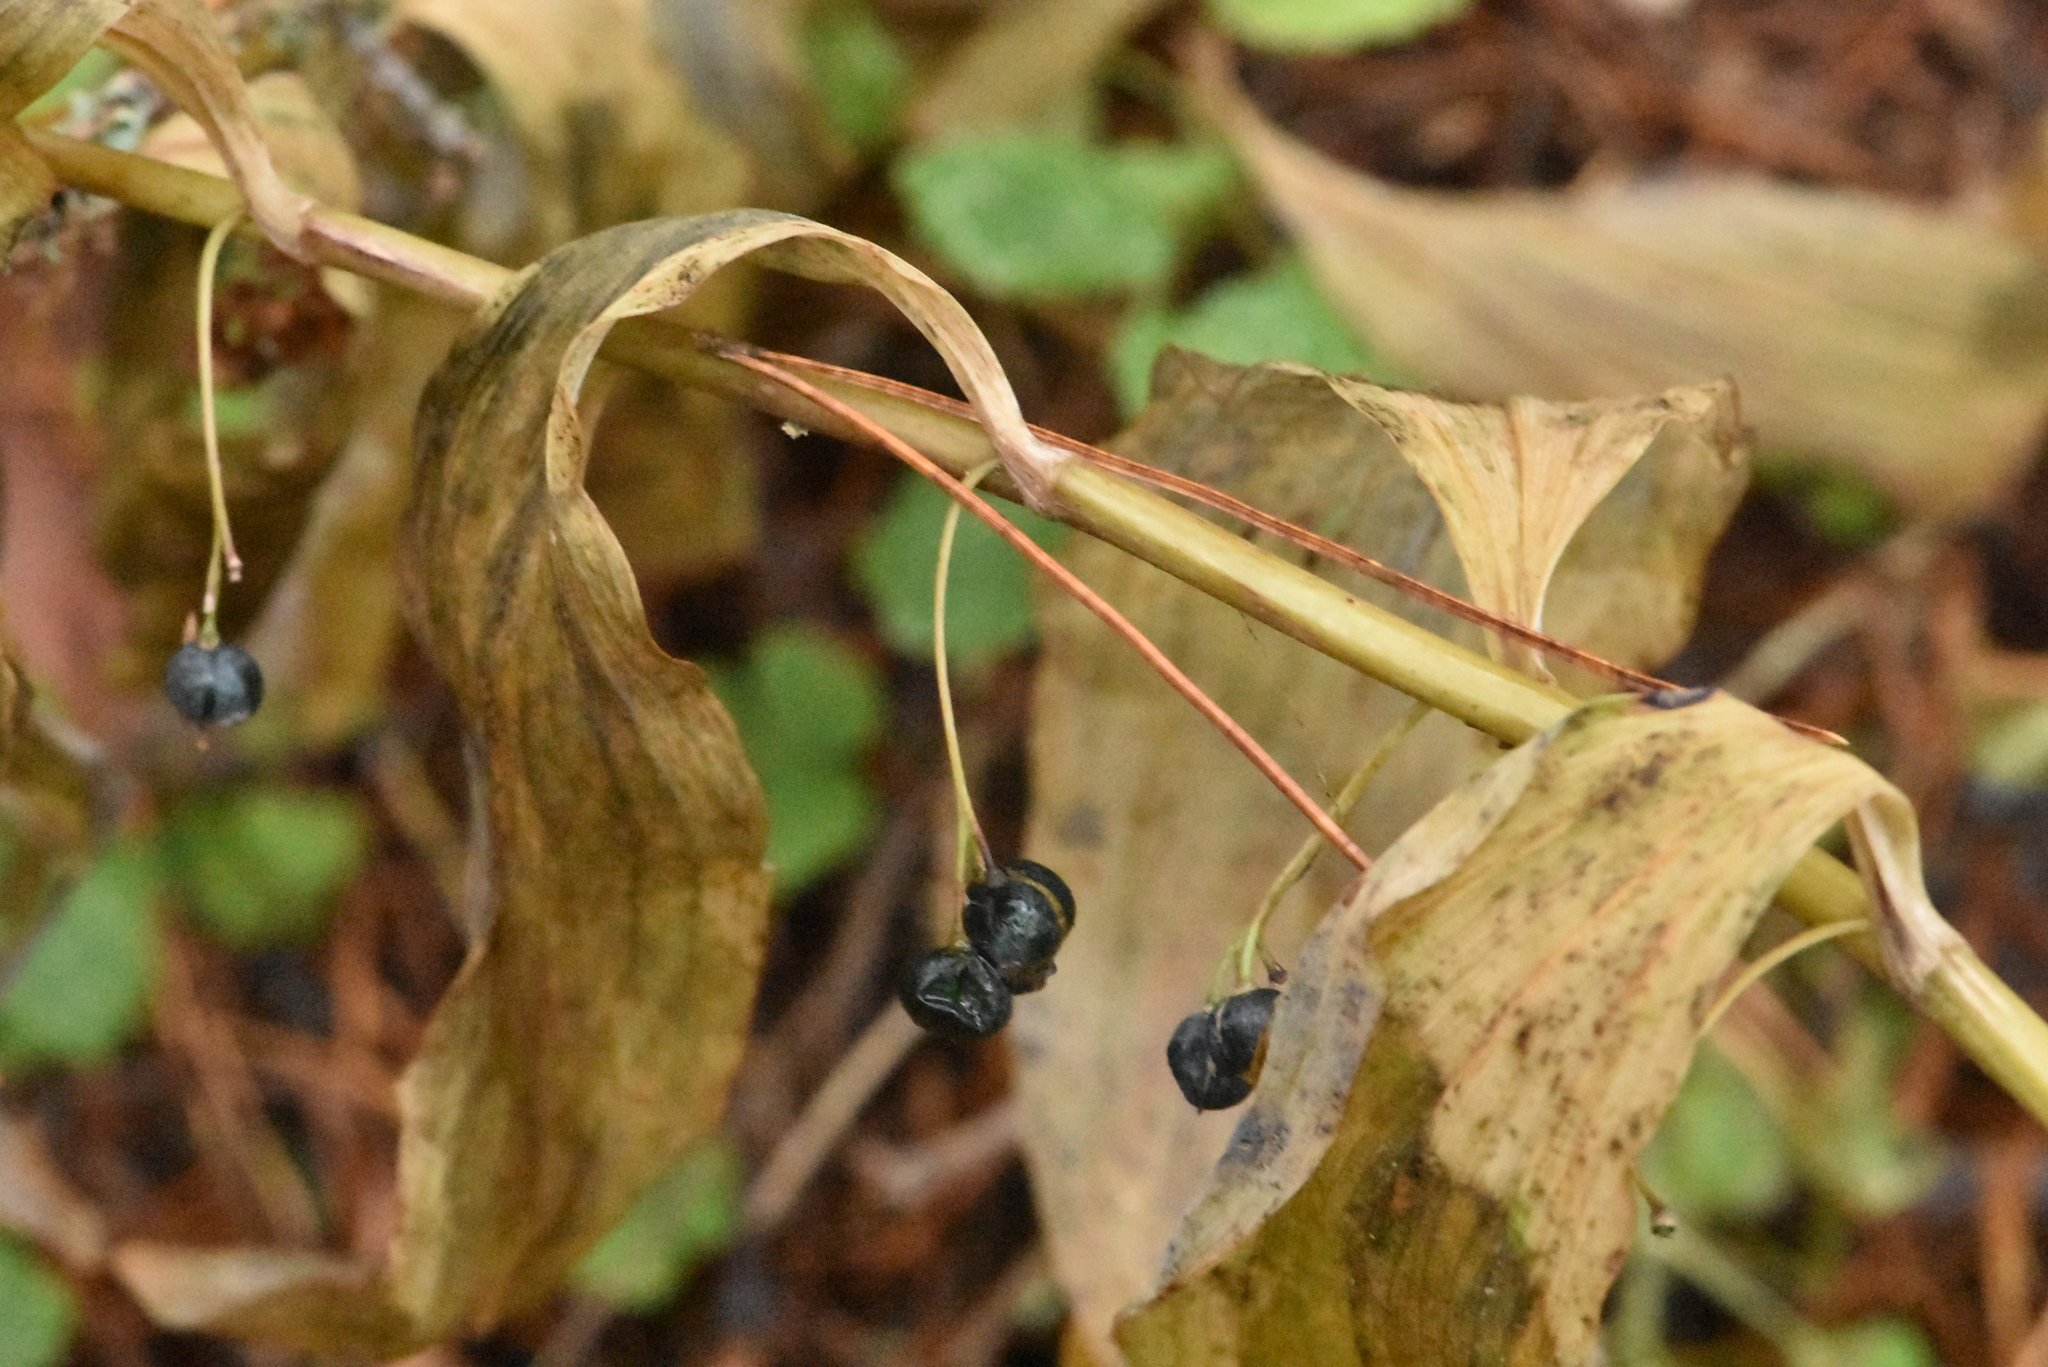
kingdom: Plantae
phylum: Tracheophyta
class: Liliopsida
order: Asparagales
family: Asparagaceae
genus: Polygonatum
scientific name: Polygonatum multiflorum
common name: Solomon's-seal
